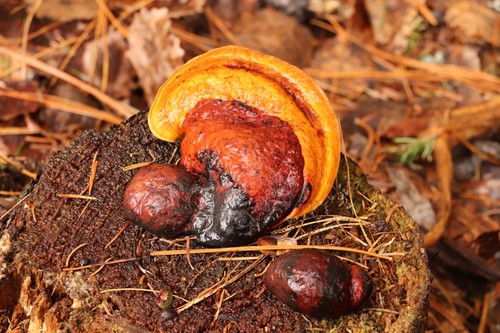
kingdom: Fungi
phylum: Basidiomycota
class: Agaricomycetes
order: Polyporales
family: Fomitopsidaceae
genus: Fomitopsis
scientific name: Fomitopsis pinicola
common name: Red-belted bracket
